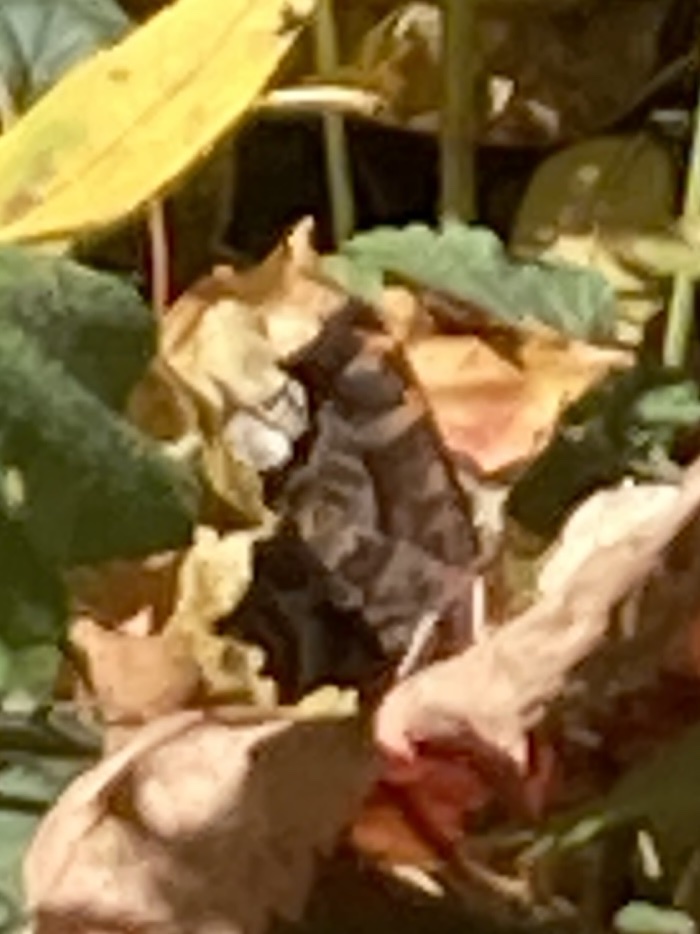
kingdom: Animalia
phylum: Arthropoda
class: Insecta
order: Lepidoptera
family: Nymphalidae
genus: Polygonia
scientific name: Polygonia comma
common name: Eastern comma
